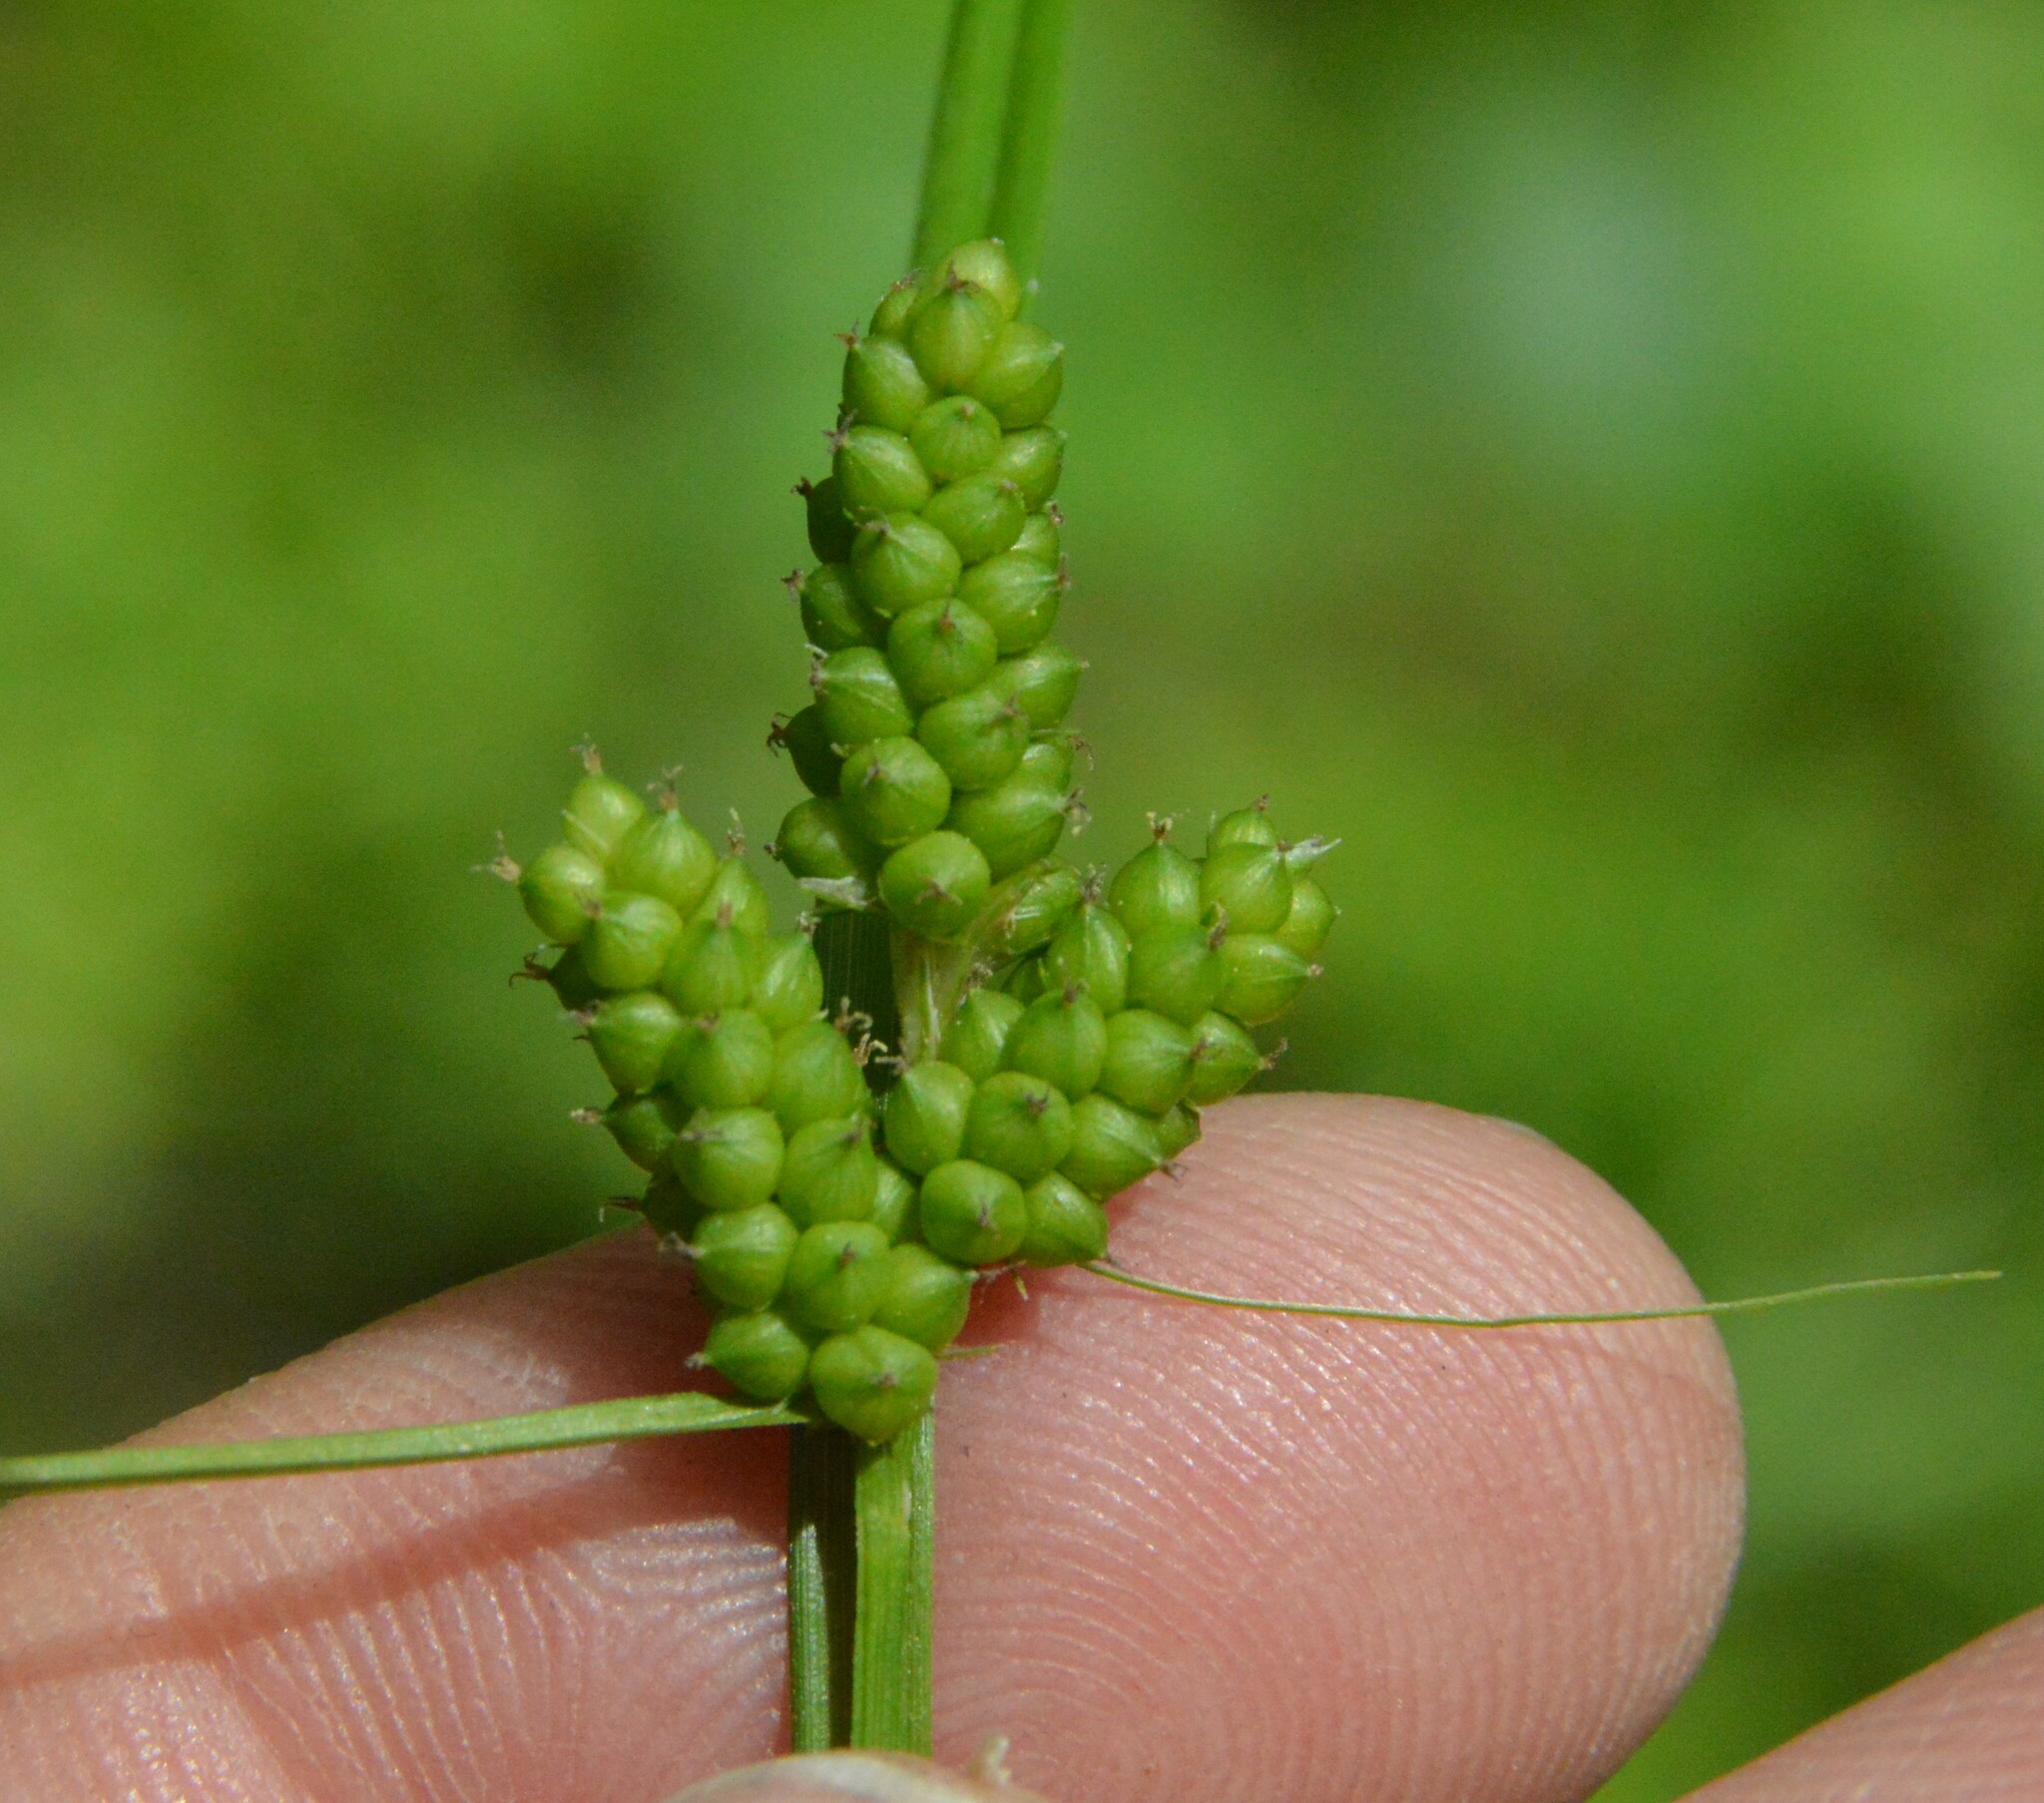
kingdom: Plantae
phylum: Tracheophyta
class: Liliopsida
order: Poales
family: Cyperaceae
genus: Carex
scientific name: Carex caroliniana
